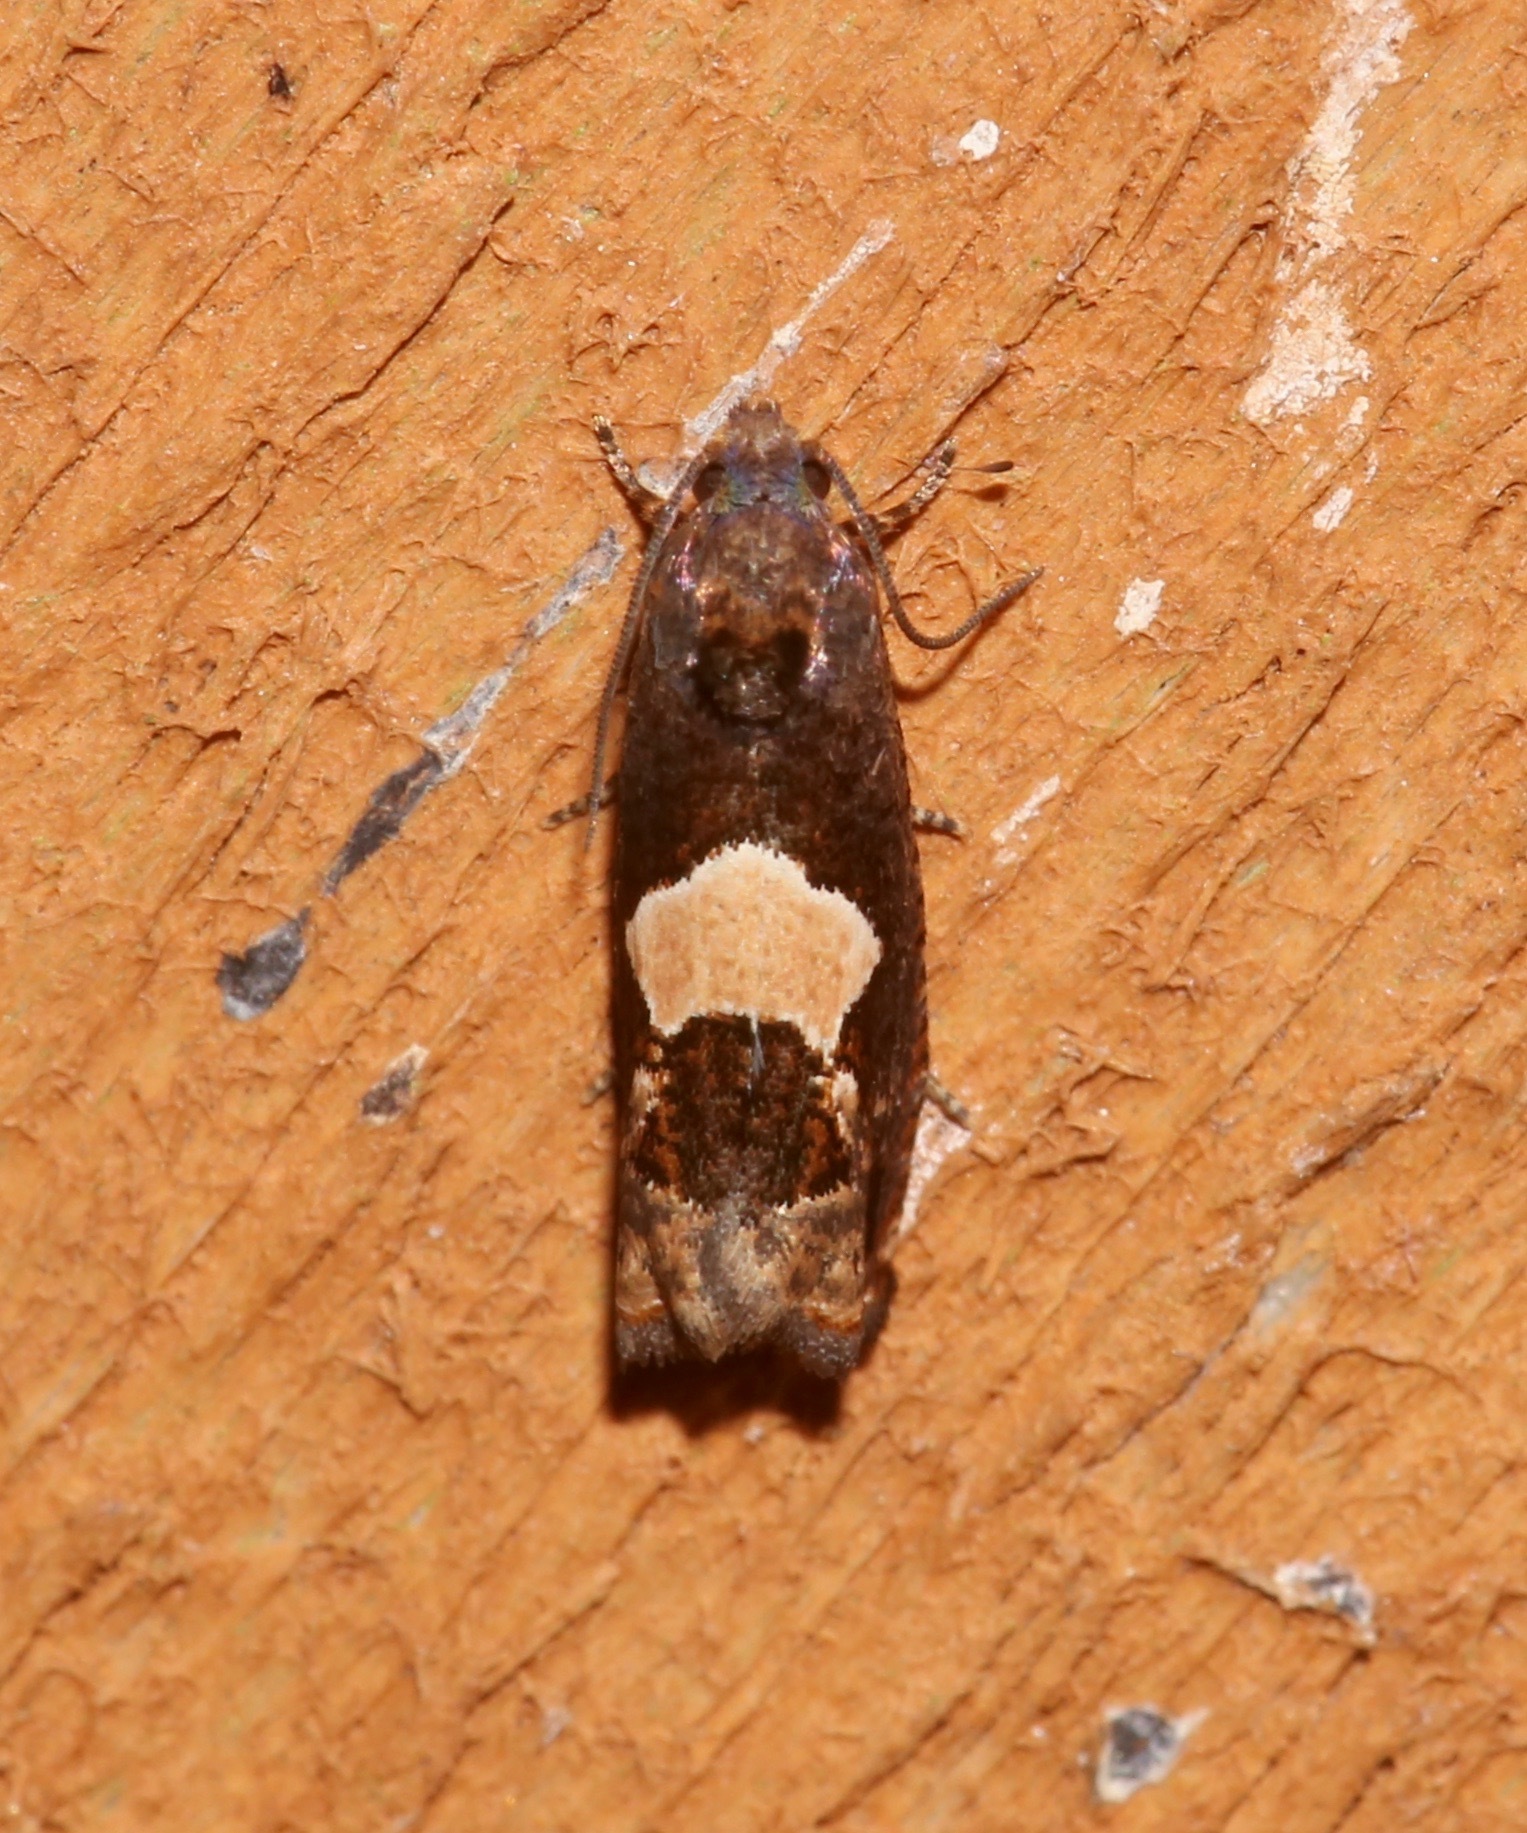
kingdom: Animalia
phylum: Arthropoda
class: Insecta
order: Lepidoptera
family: Tortricidae
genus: Epiblema
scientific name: Epiblema otiosana
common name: Bidens borer moth
